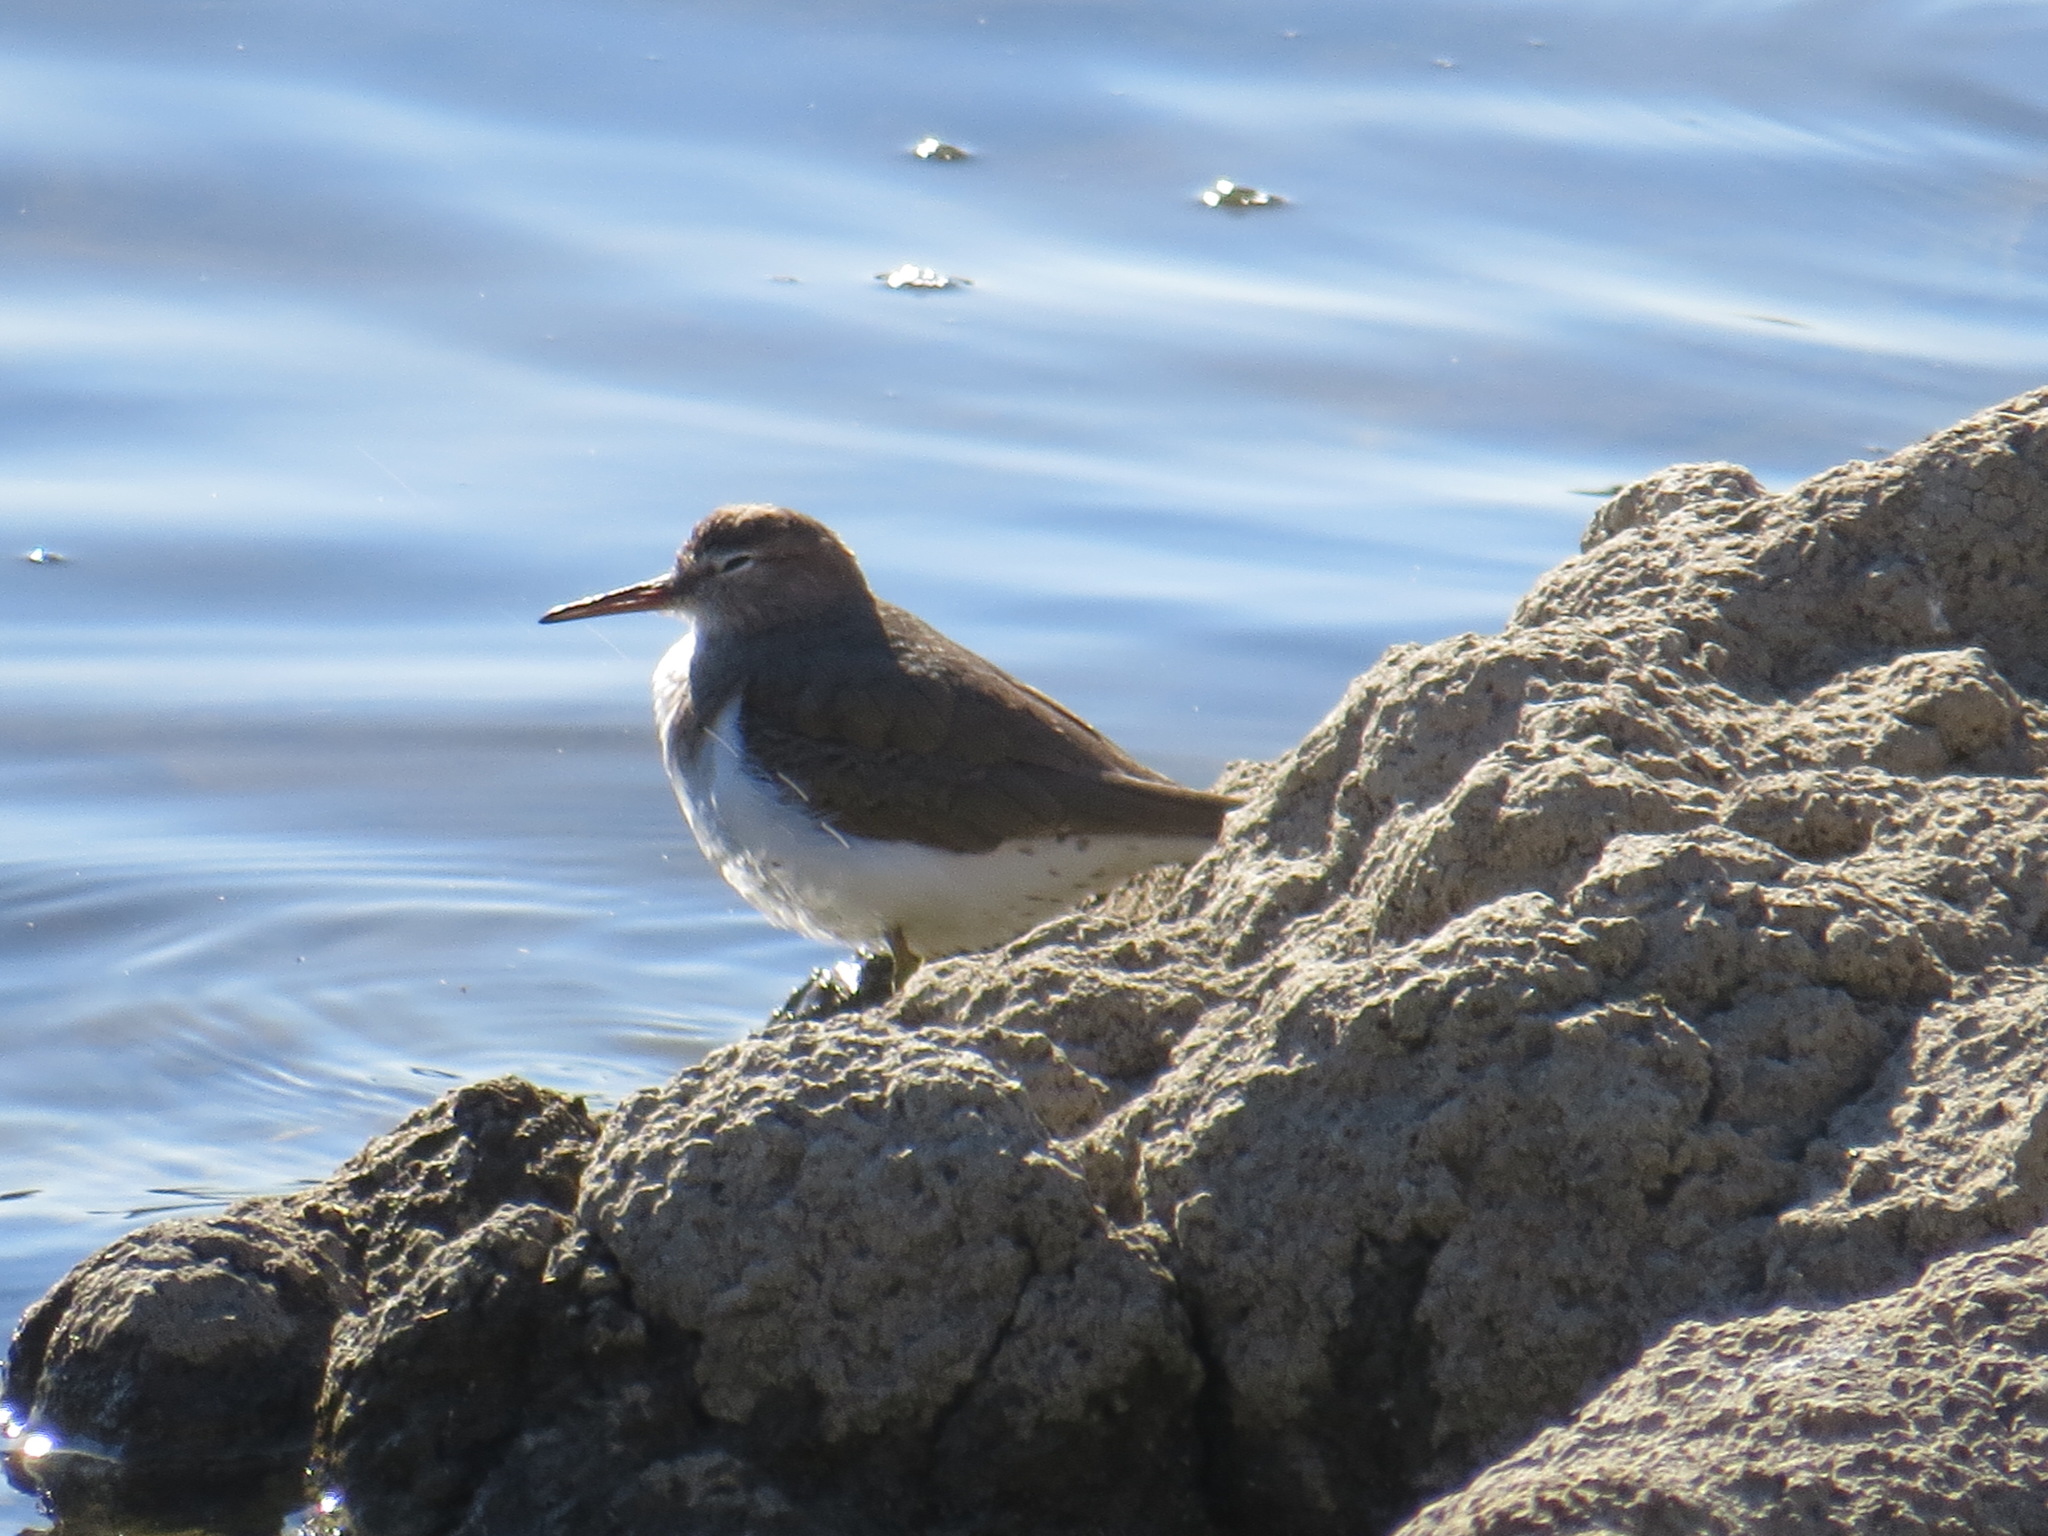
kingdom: Animalia
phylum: Chordata
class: Aves
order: Charadriiformes
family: Scolopacidae
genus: Actitis
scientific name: Actitis macularius
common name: Spotted sandpiper
